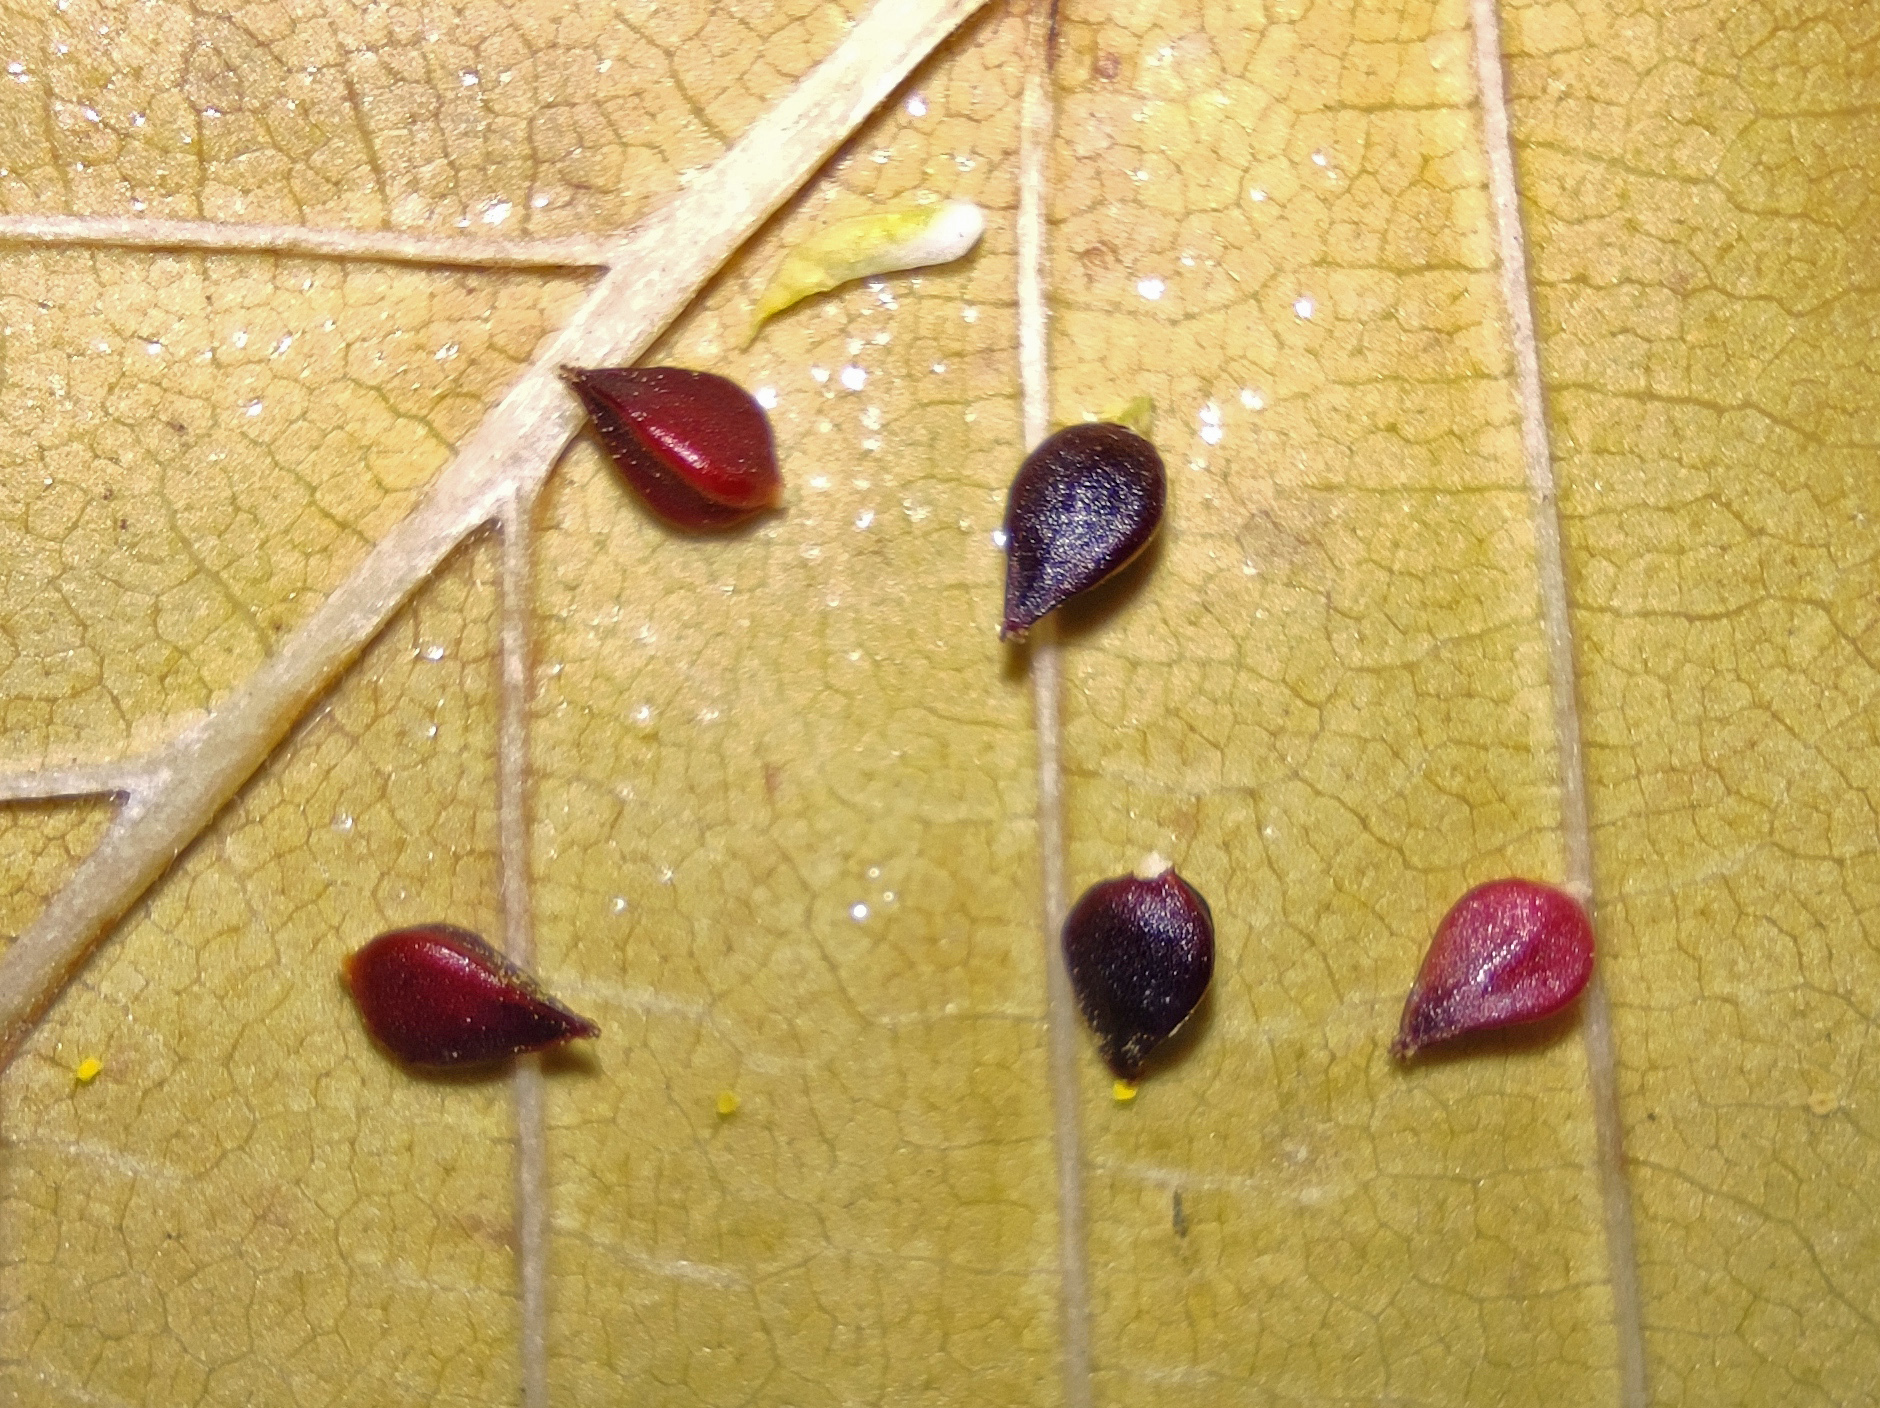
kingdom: Plantae
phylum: Tracheophyta
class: Magnoliopsida
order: Caryophyllales
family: Polygonaceae
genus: Polygonum
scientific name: Polygonum aviculare
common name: Prostrate knotweed
